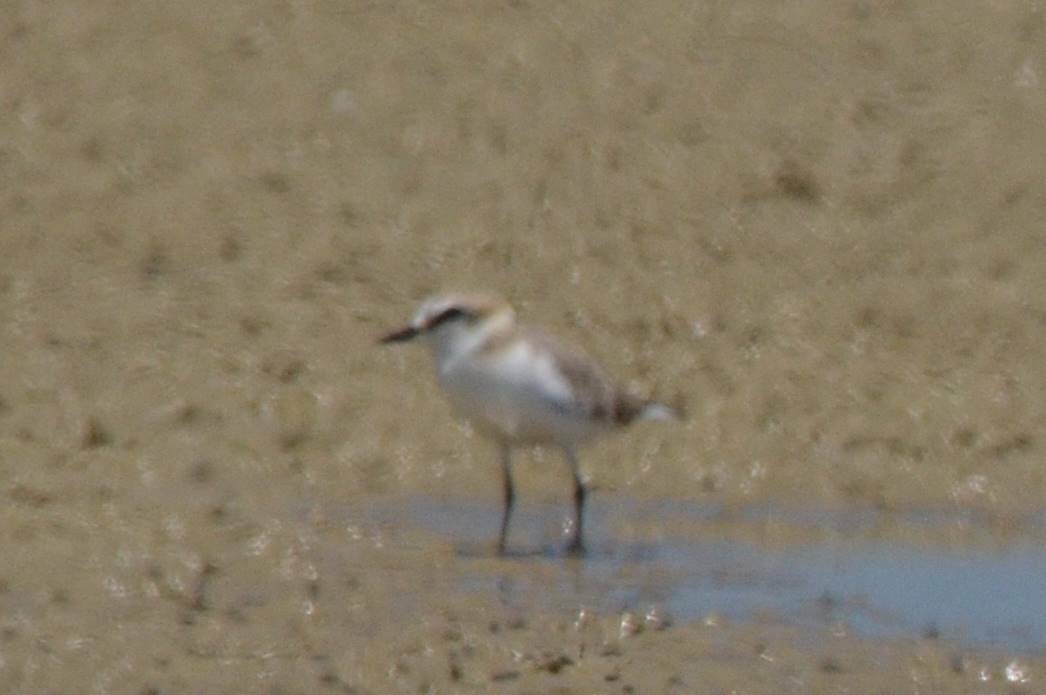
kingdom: Animalia
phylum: Chordata
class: Aves
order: Charadriiformes
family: Charadriidae
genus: Charadrius
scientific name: Charadrius alexandrinus
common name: Kentish plover
